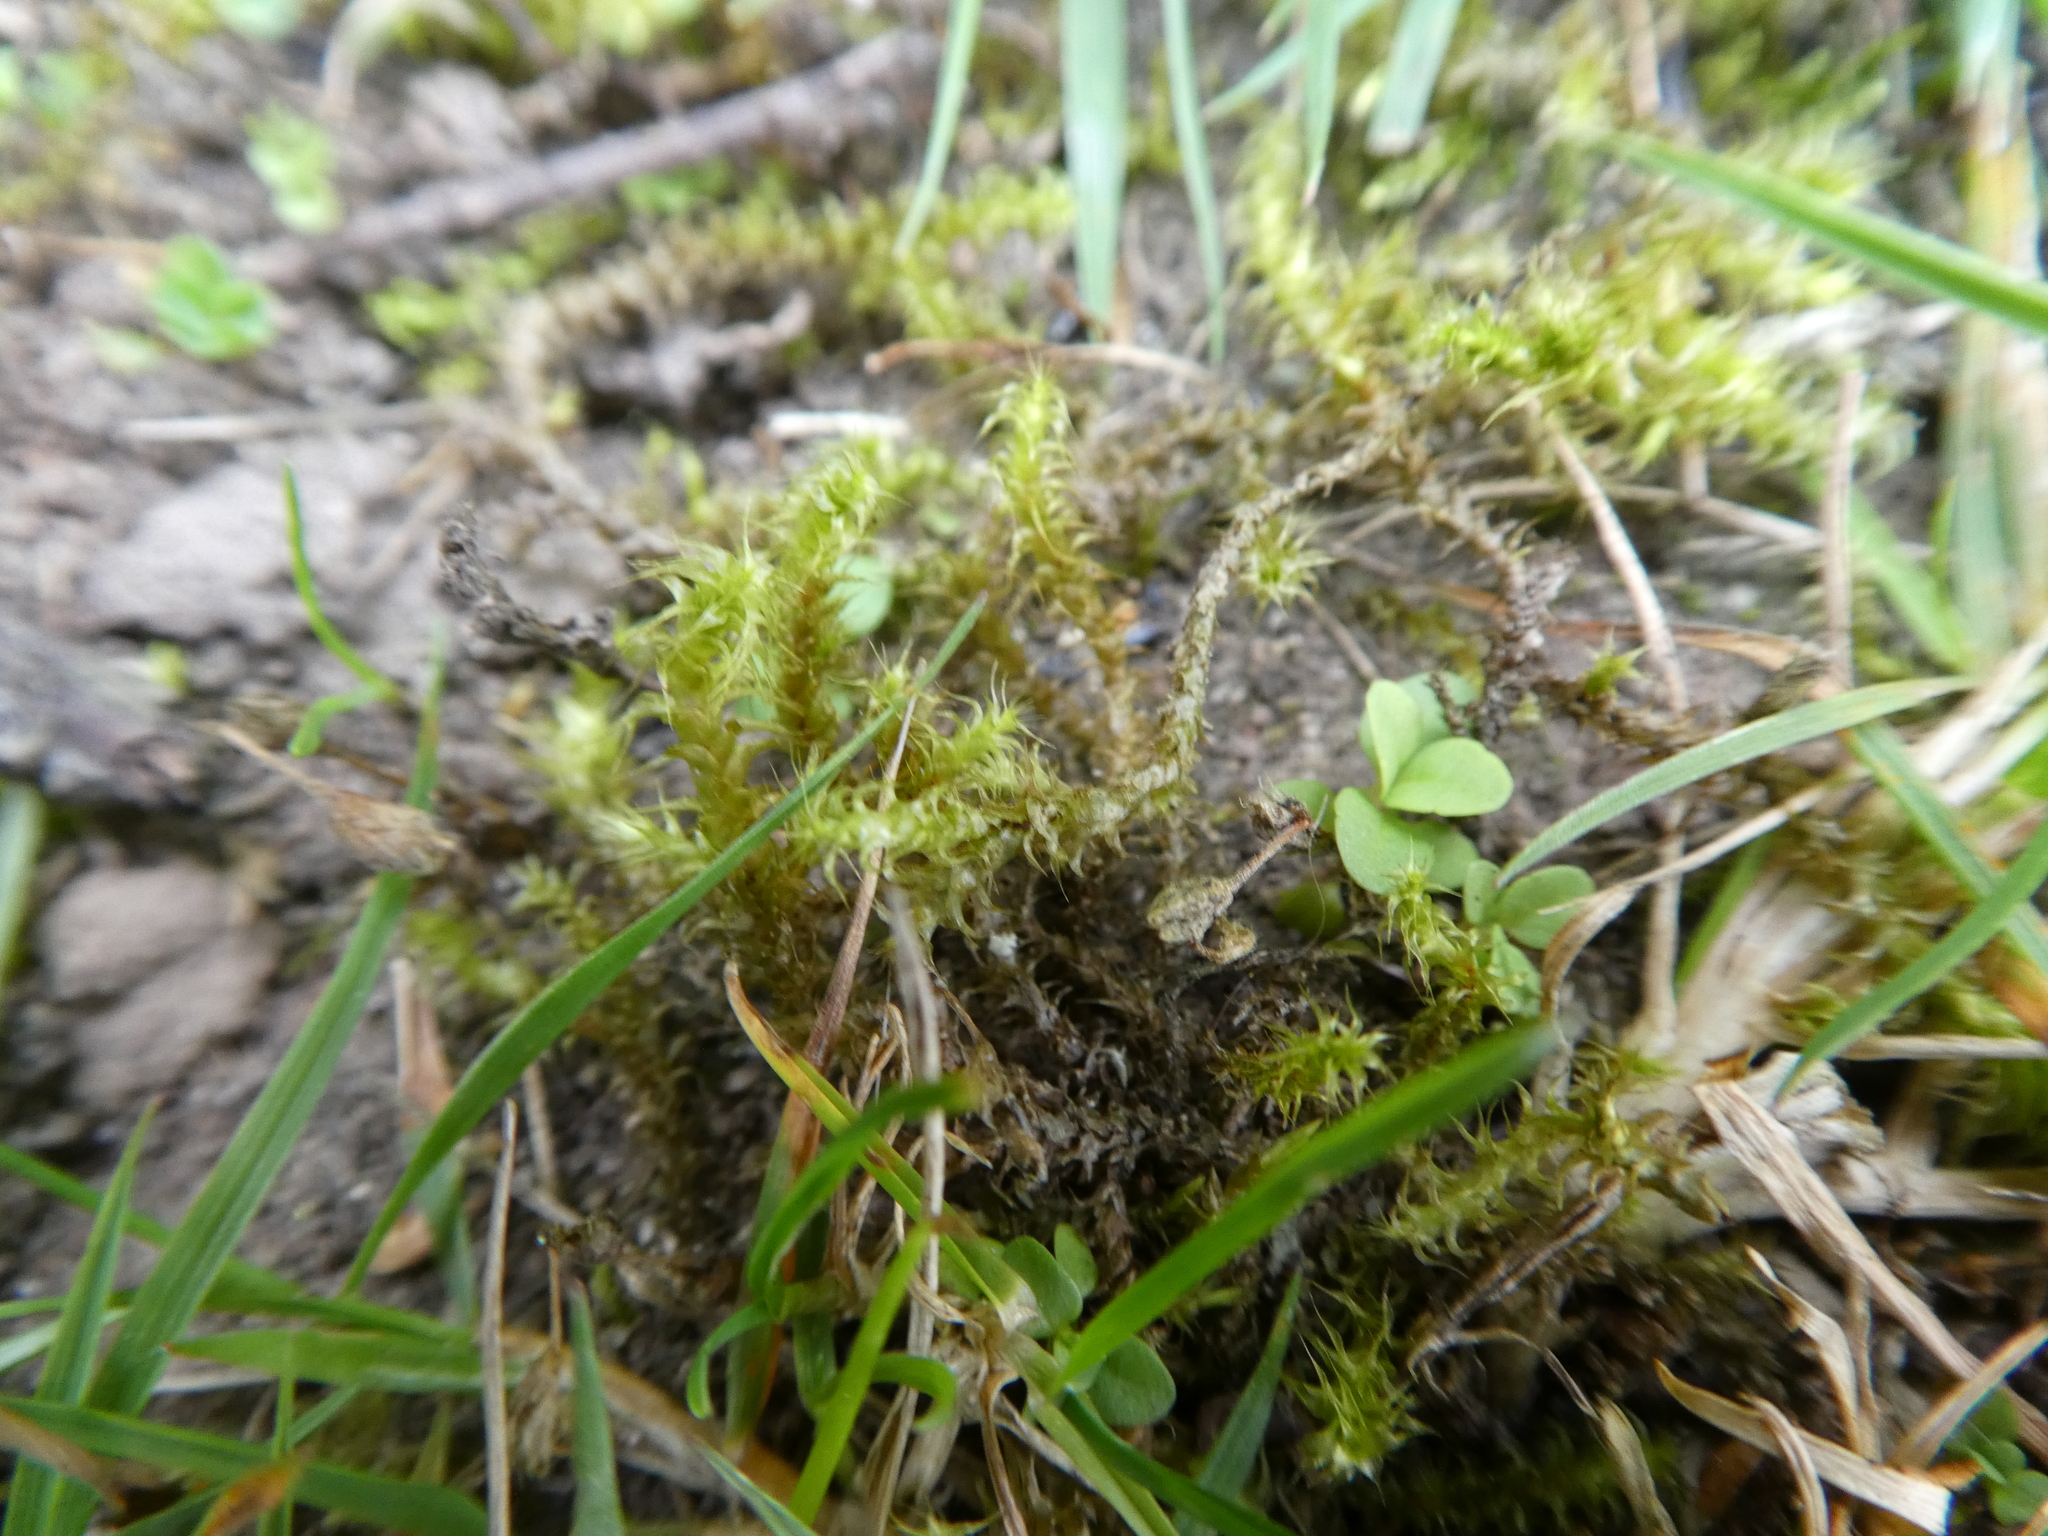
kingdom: Plantae
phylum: Bryophyta
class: Bryopsida
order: Hypnales
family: Hylocomiaceae
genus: Rhytidiadelphus
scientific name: Rhytidiadelphus squarrosus
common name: Springy turf-moss
